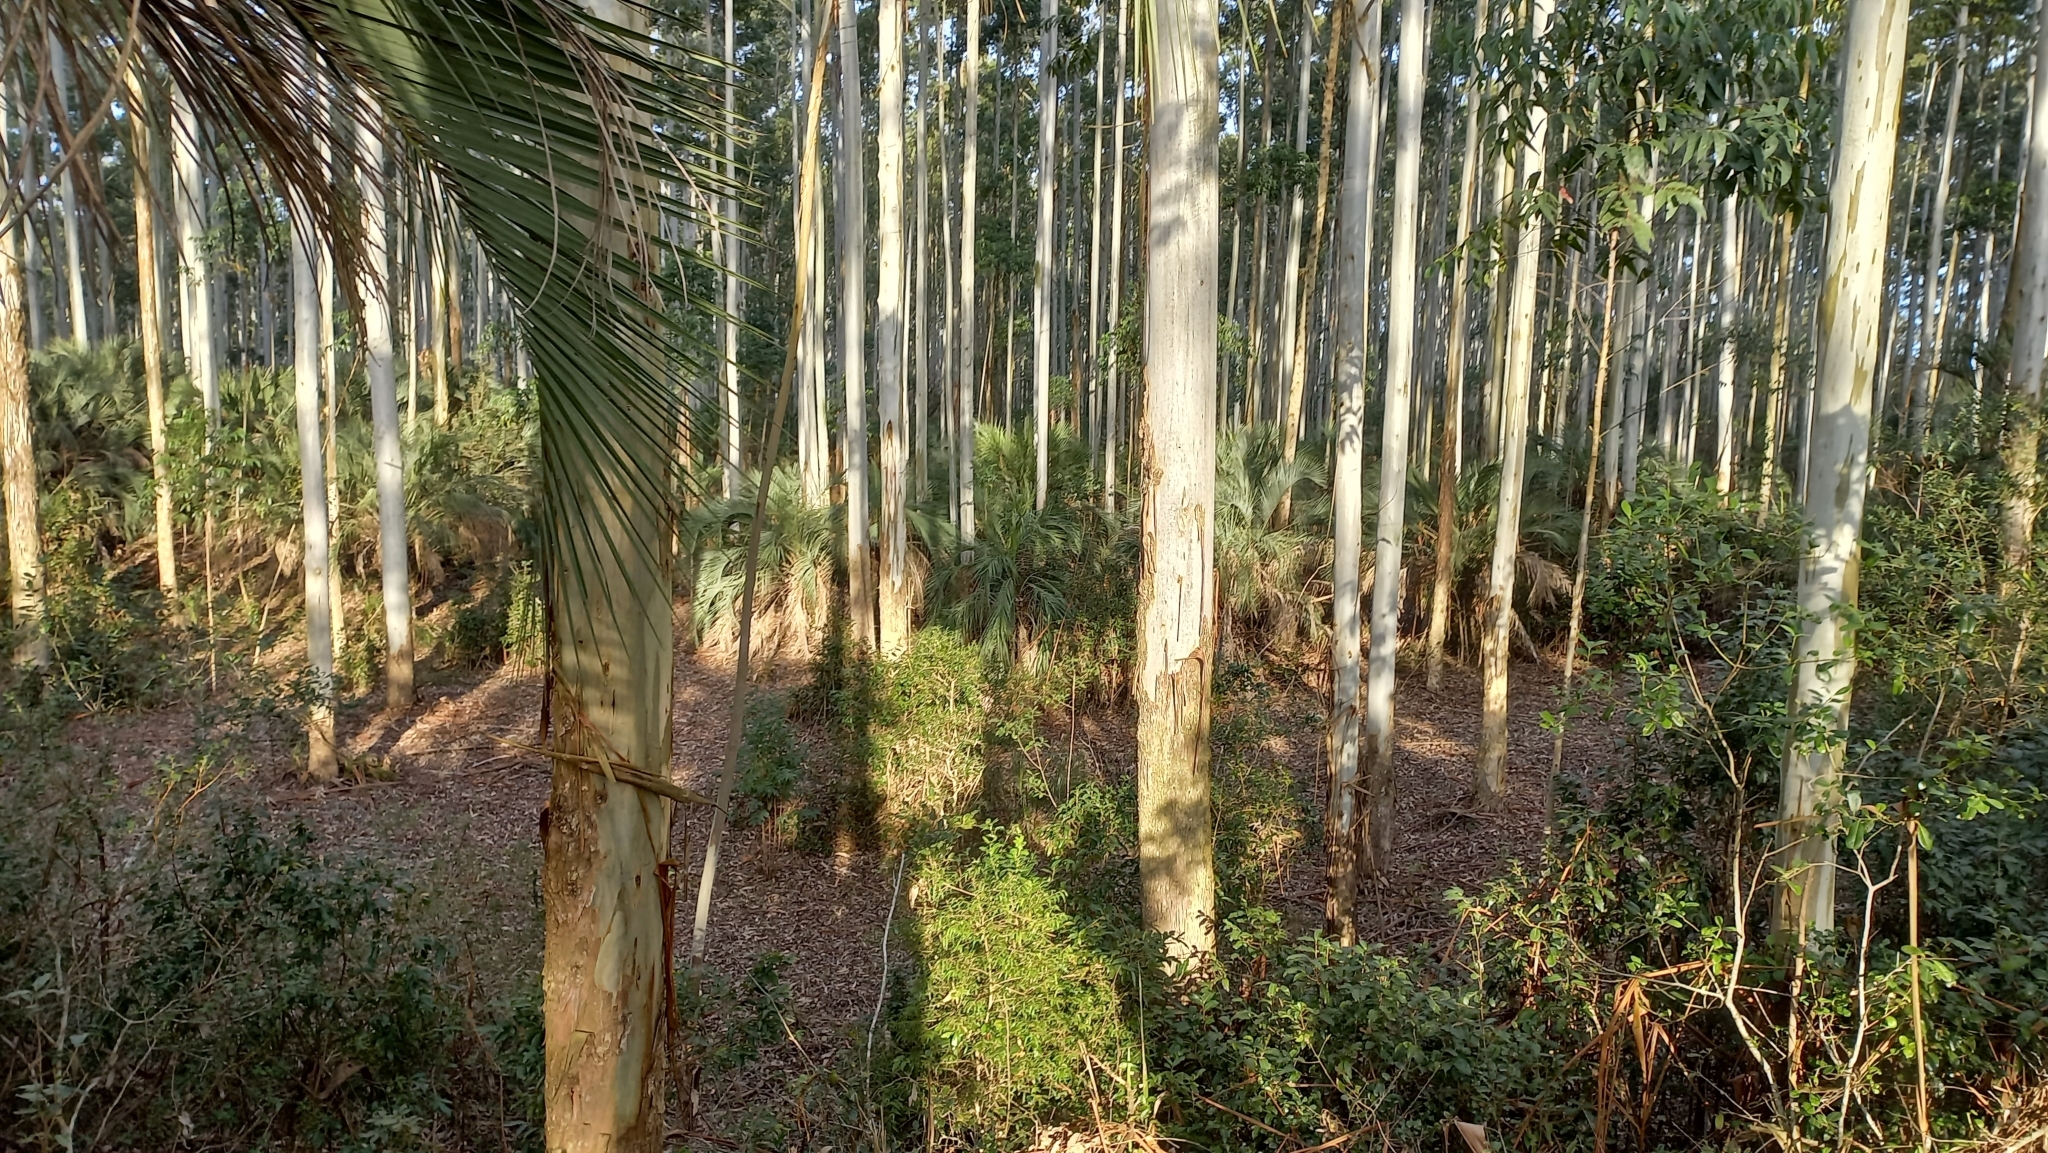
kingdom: Plantae
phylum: Tracheophyta
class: Liliopsida
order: Arecales
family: Arecaceae
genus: Butia
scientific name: Butia catarinensis
